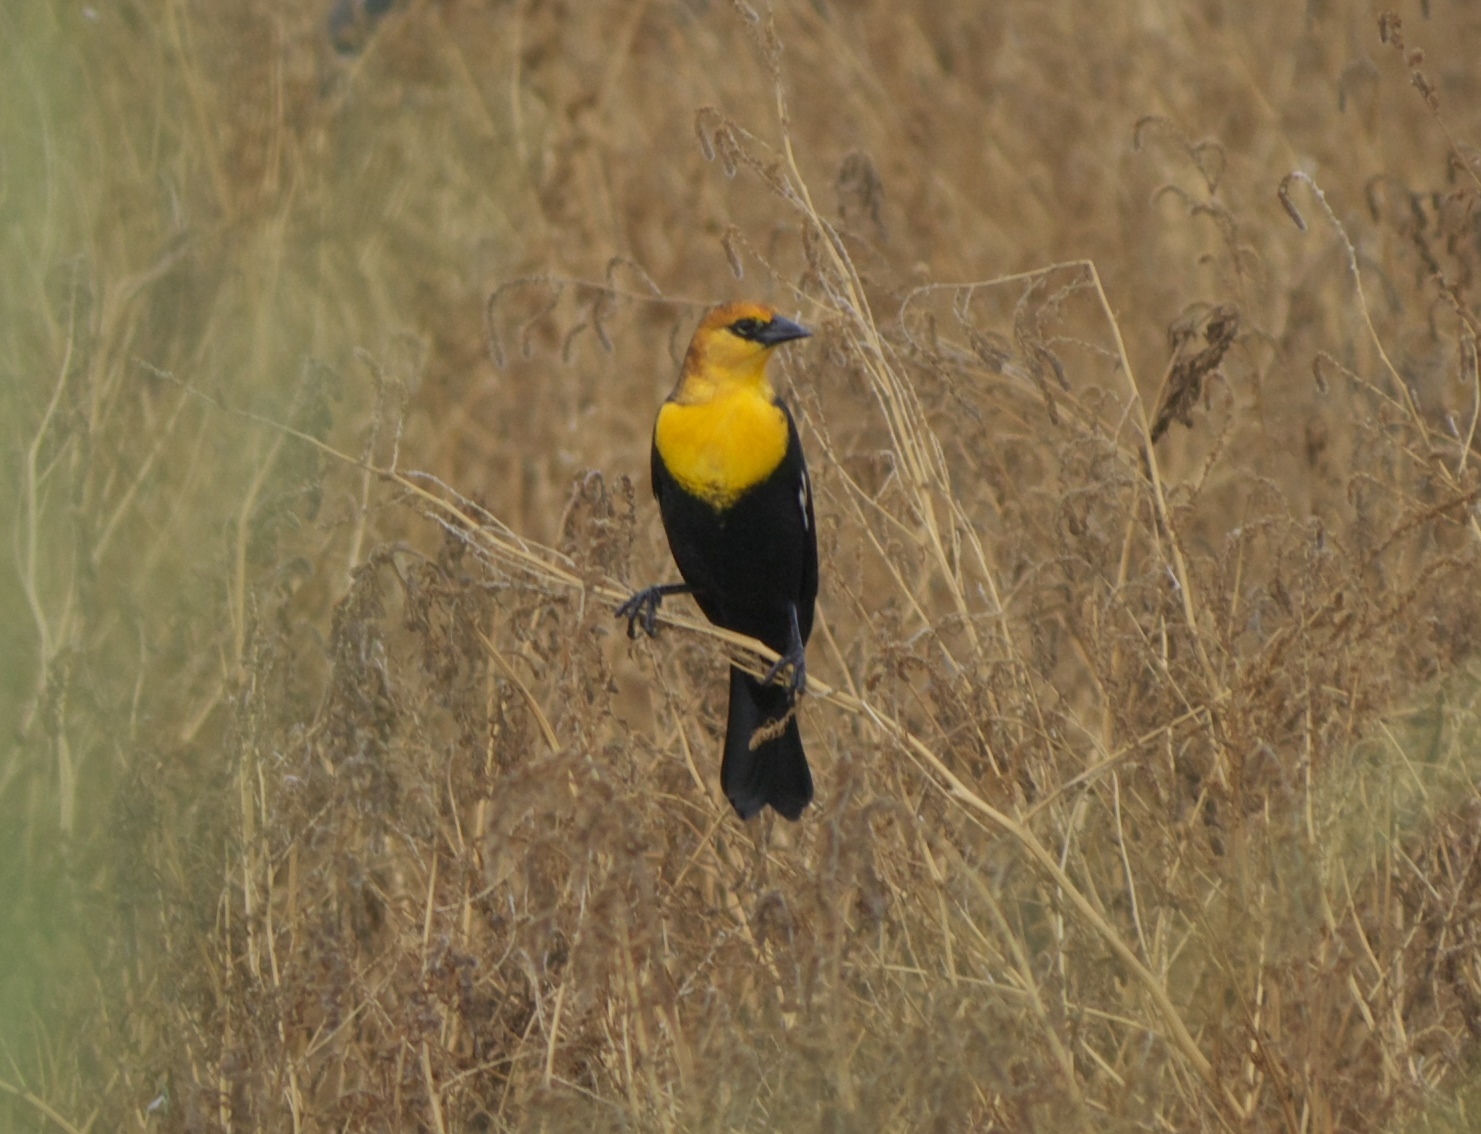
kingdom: Animalia
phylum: Chordata
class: Aves
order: Passeriformes
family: Icteridae
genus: Xanthocephalus
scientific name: Xanthocephalus xanthocephalus
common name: Yellow-headed blackbird
